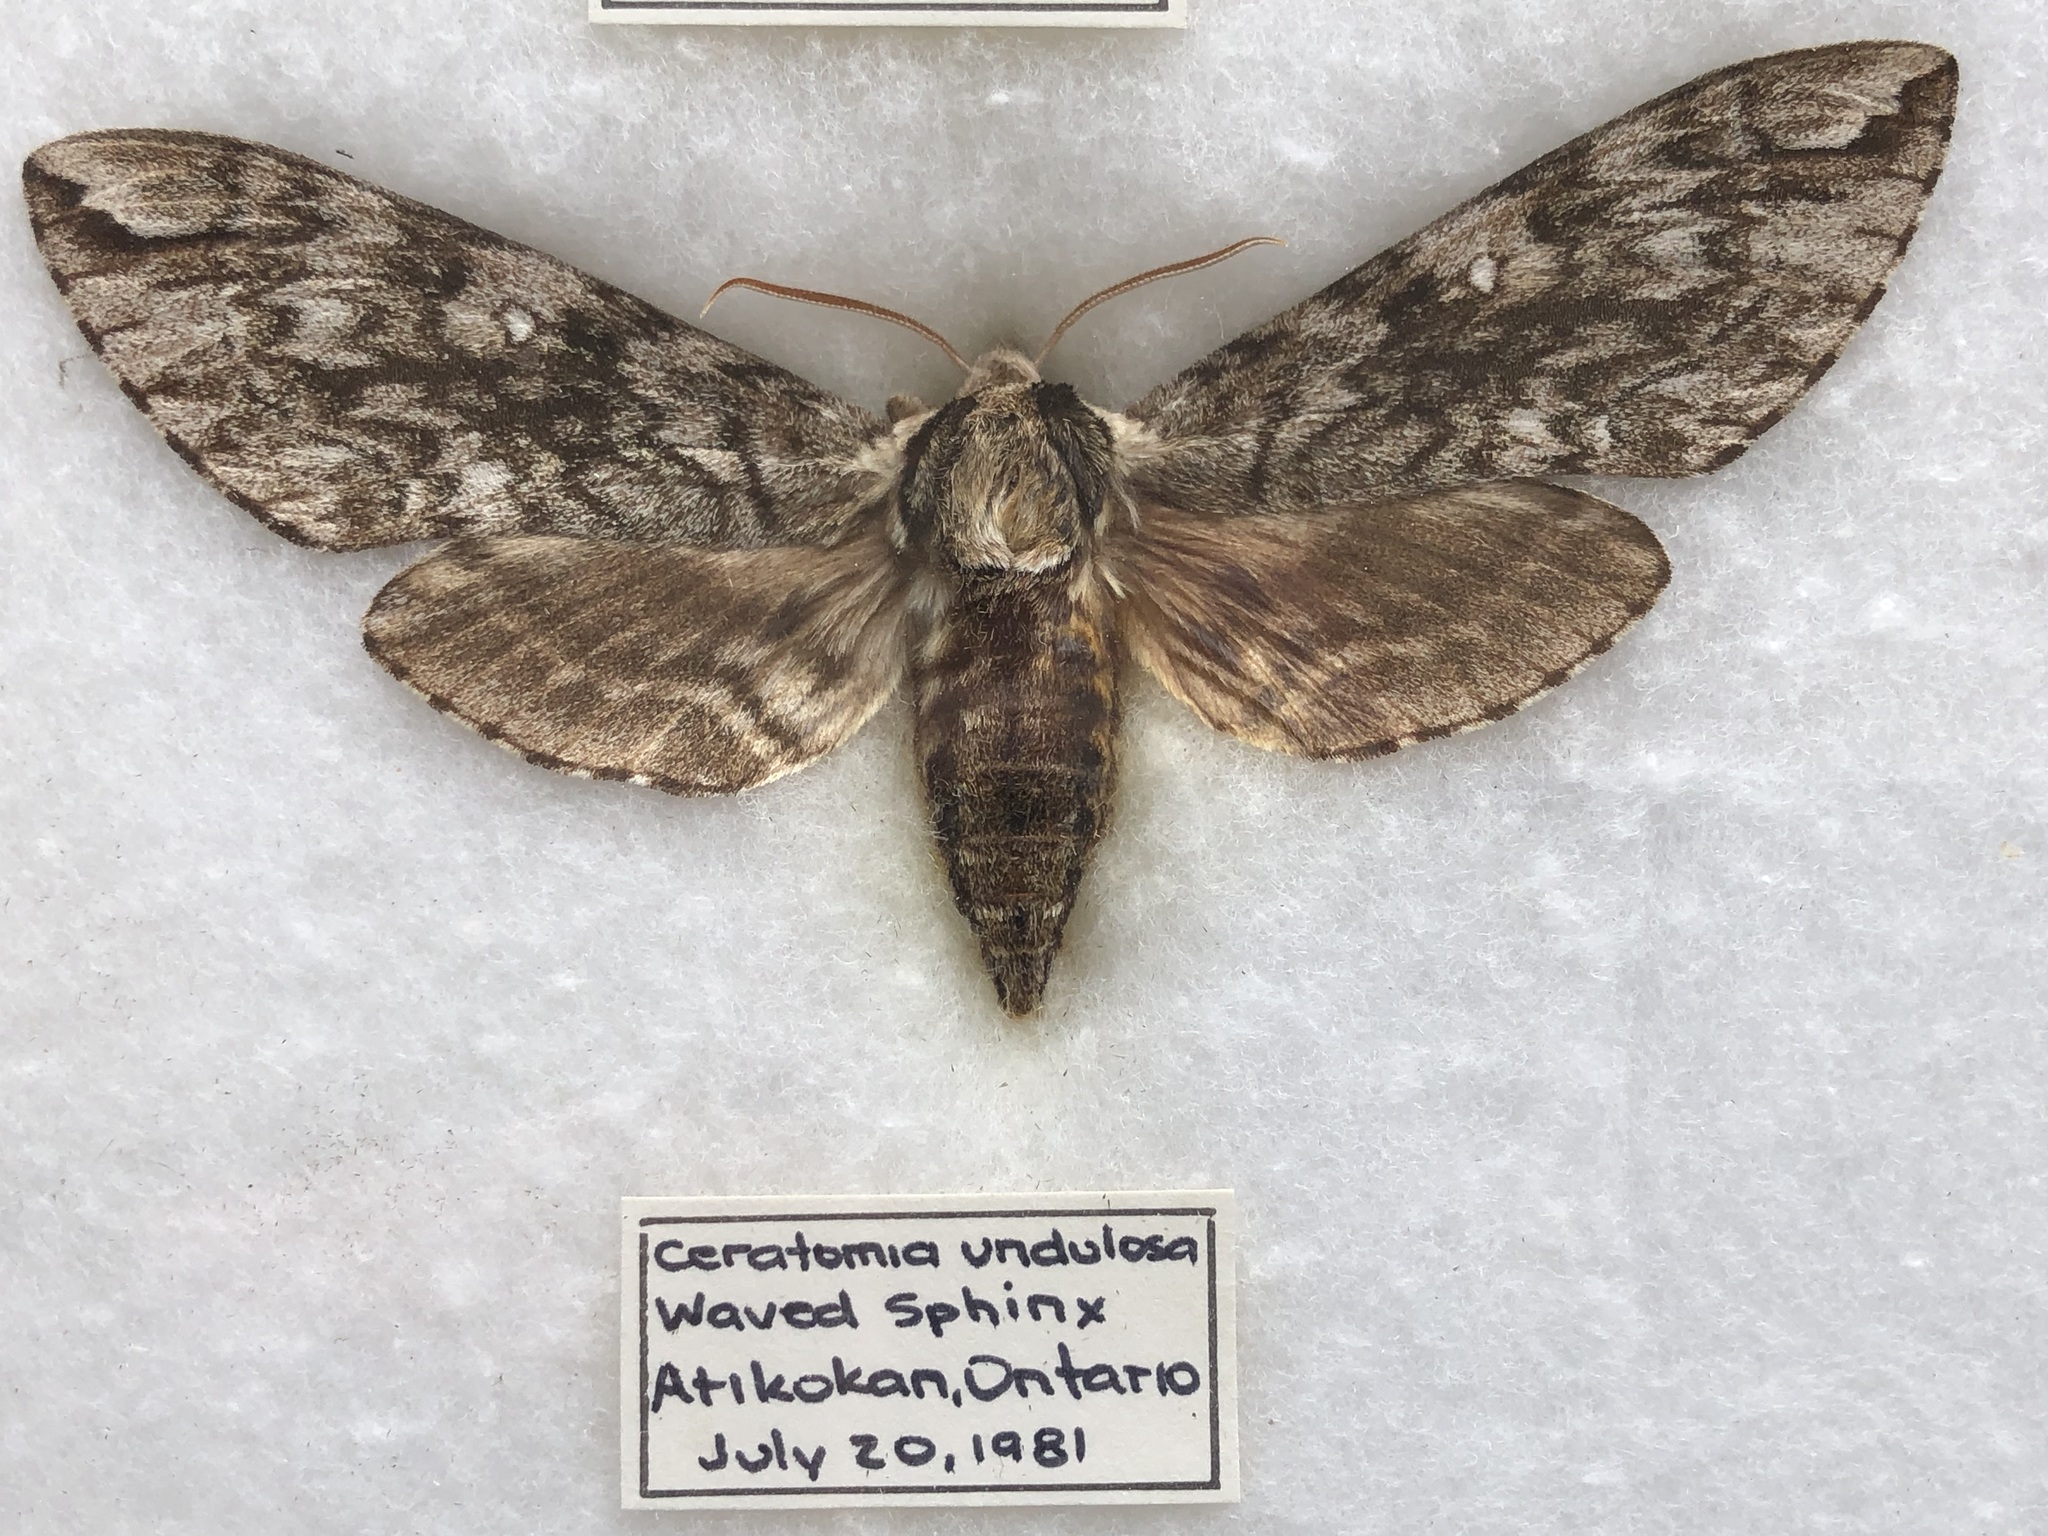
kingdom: Animalia
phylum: Arthropoda
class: Insecta
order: Lepidoptera
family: Sphingidae
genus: Ceratomia
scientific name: Ceratomia undulosa
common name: Waved sphinx
